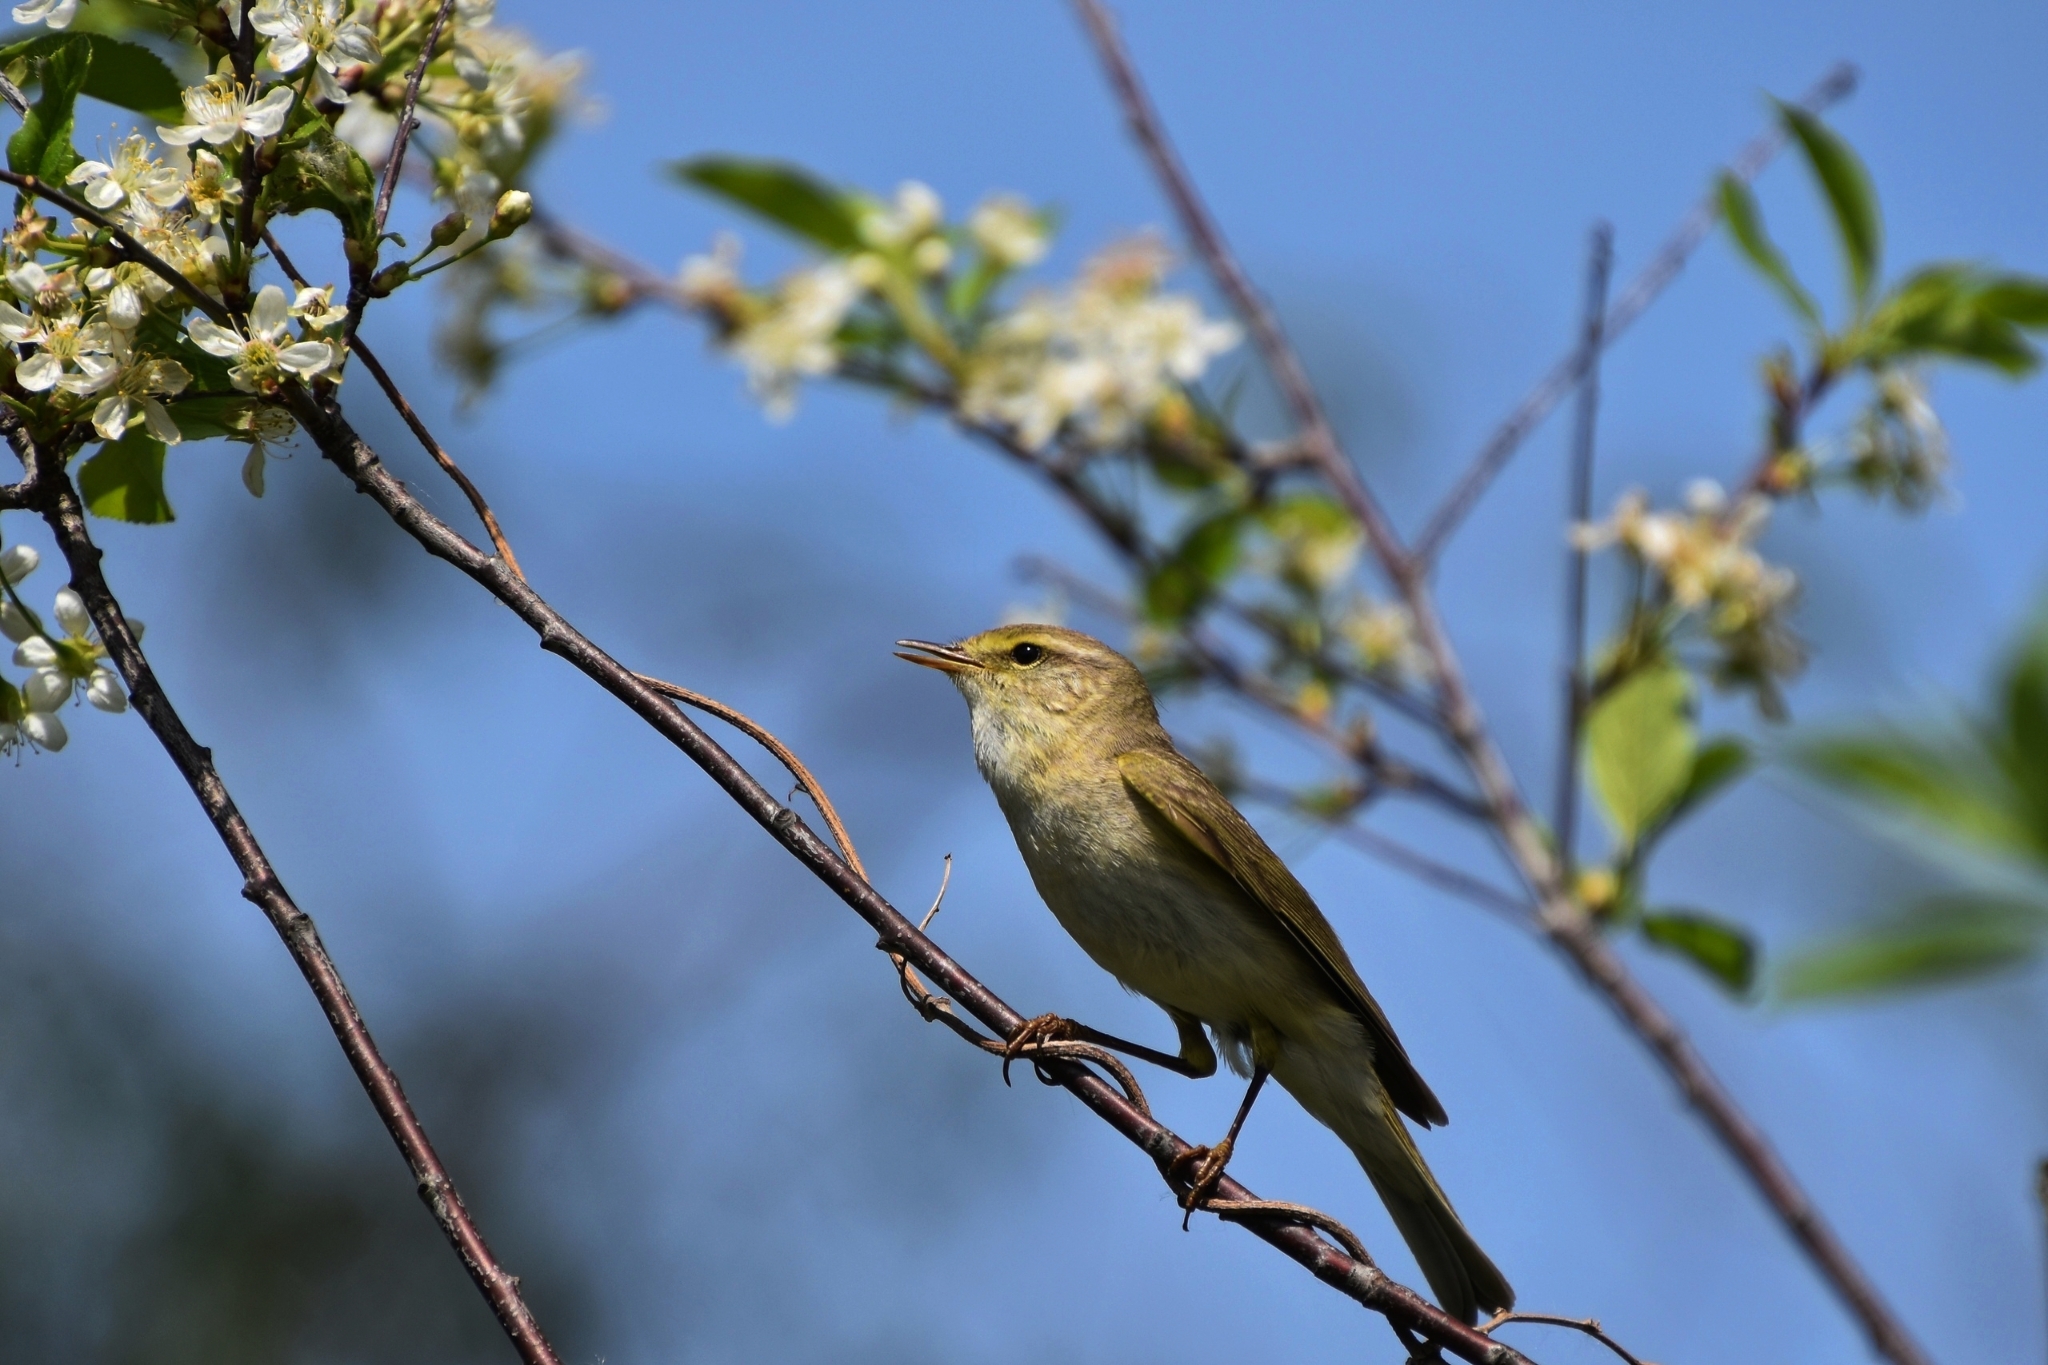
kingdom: Animalia
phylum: Chordata
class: Aves
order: Passeriformes
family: Phylloscopidae
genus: Phylloscopus
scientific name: Phylloscopus trochilus
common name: Willow warbler
